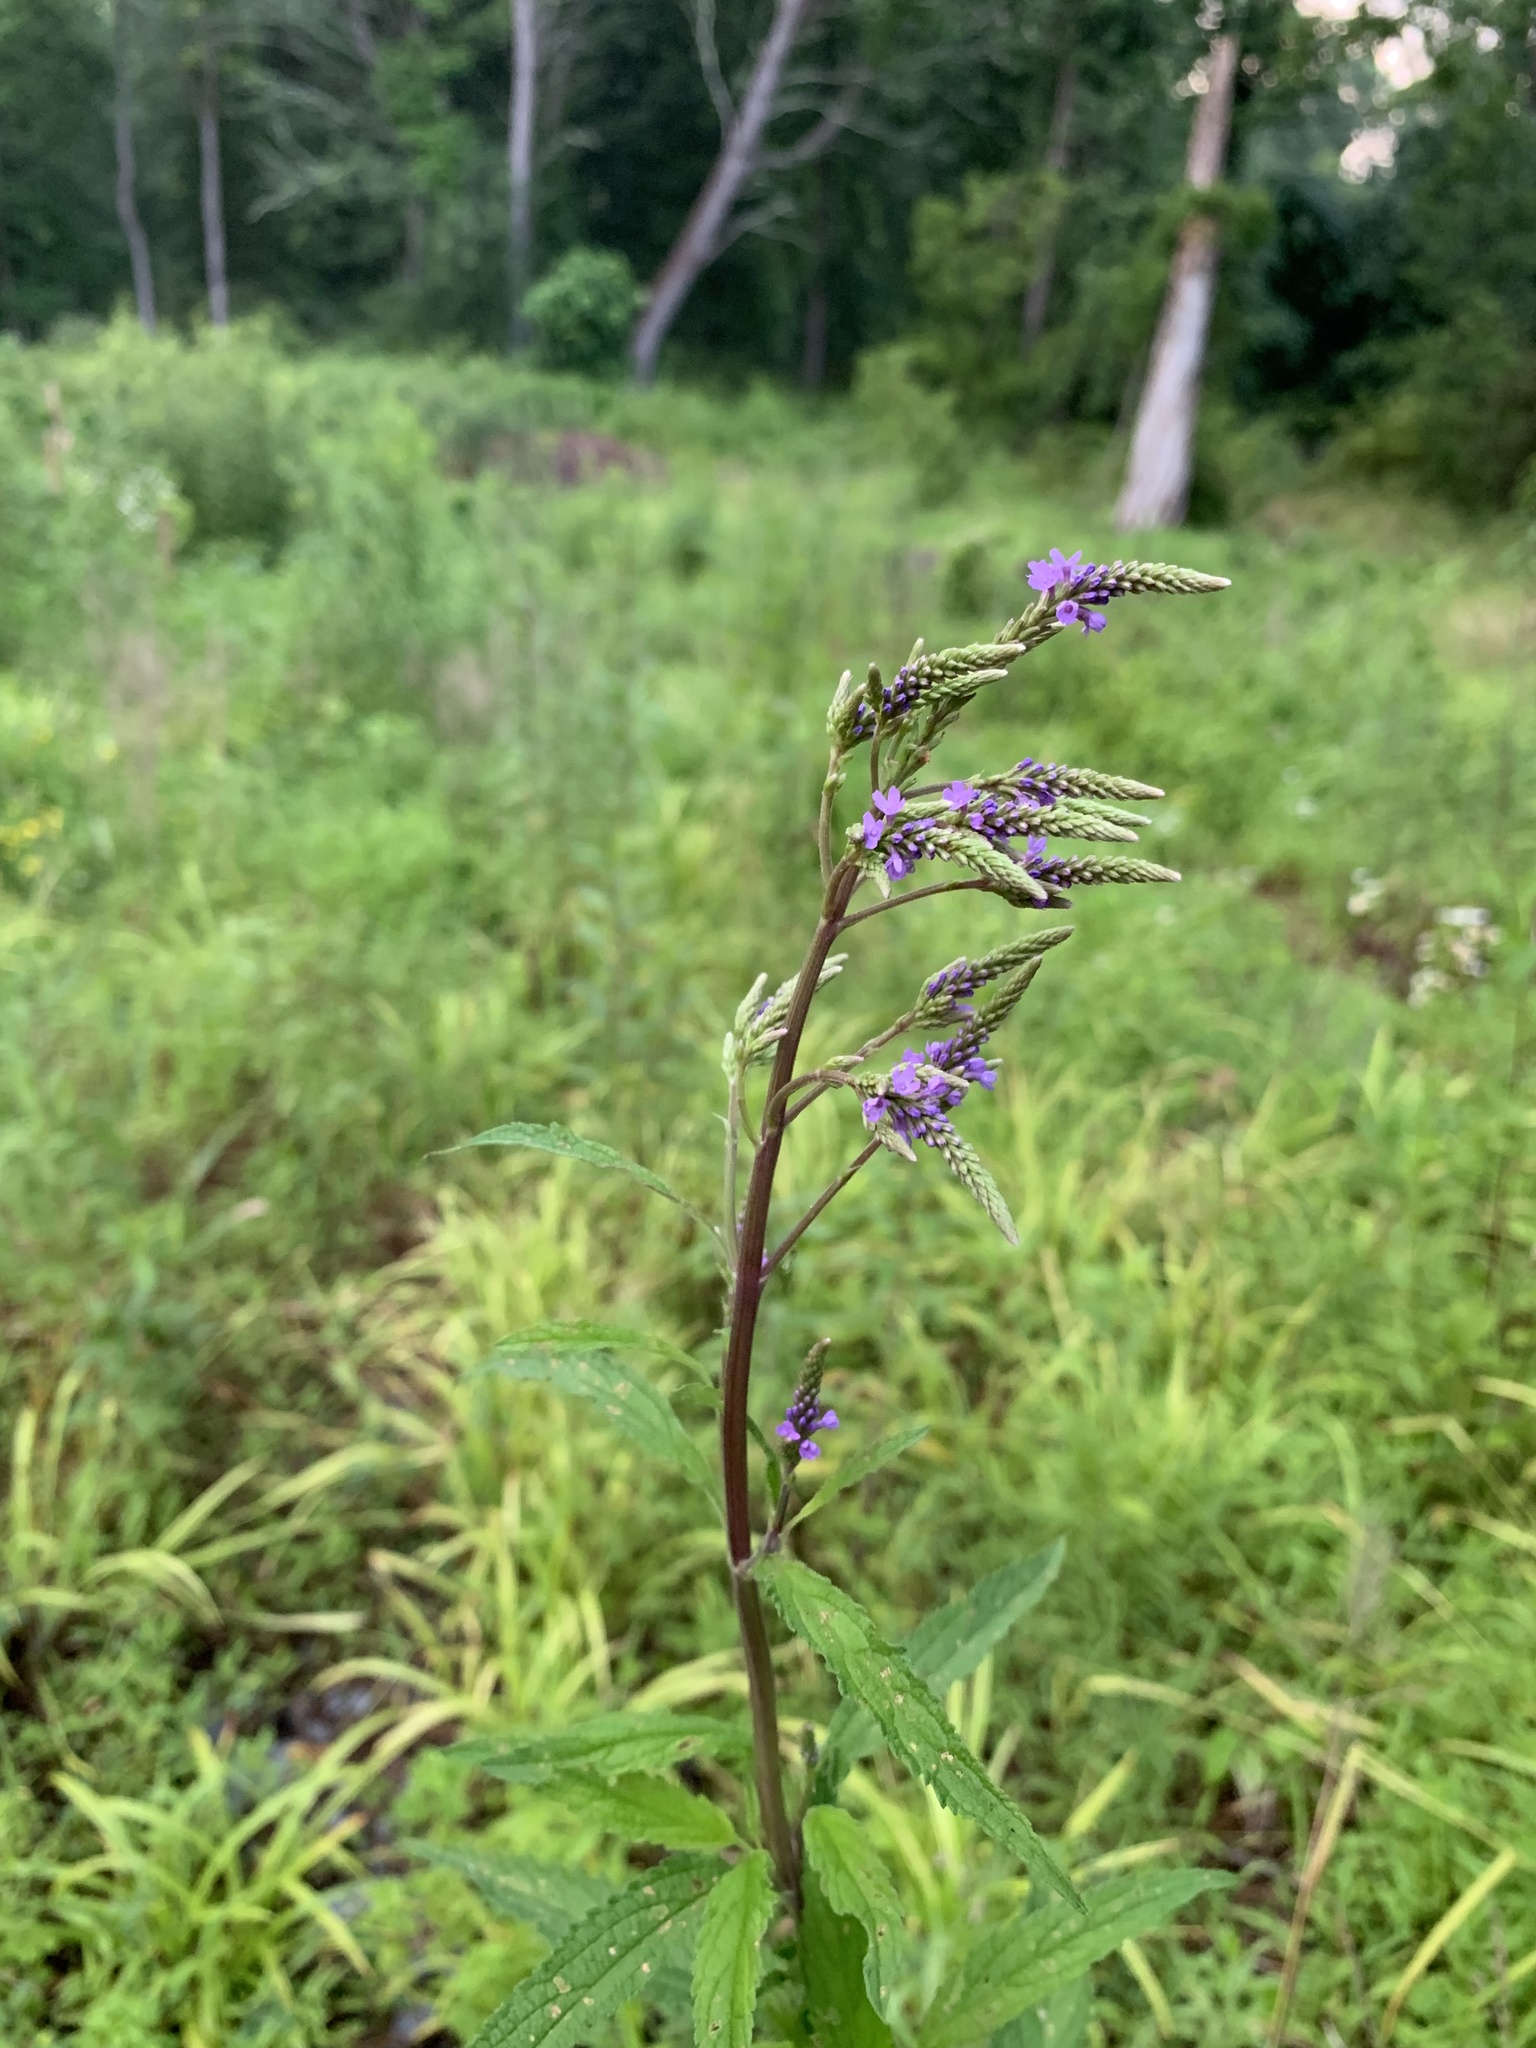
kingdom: Plantae
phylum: Tracheophyta
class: Magnoliopsida
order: Lamiales
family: Verbenaceae
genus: Verbena
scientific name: Verbena hastata
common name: American blue vervain
